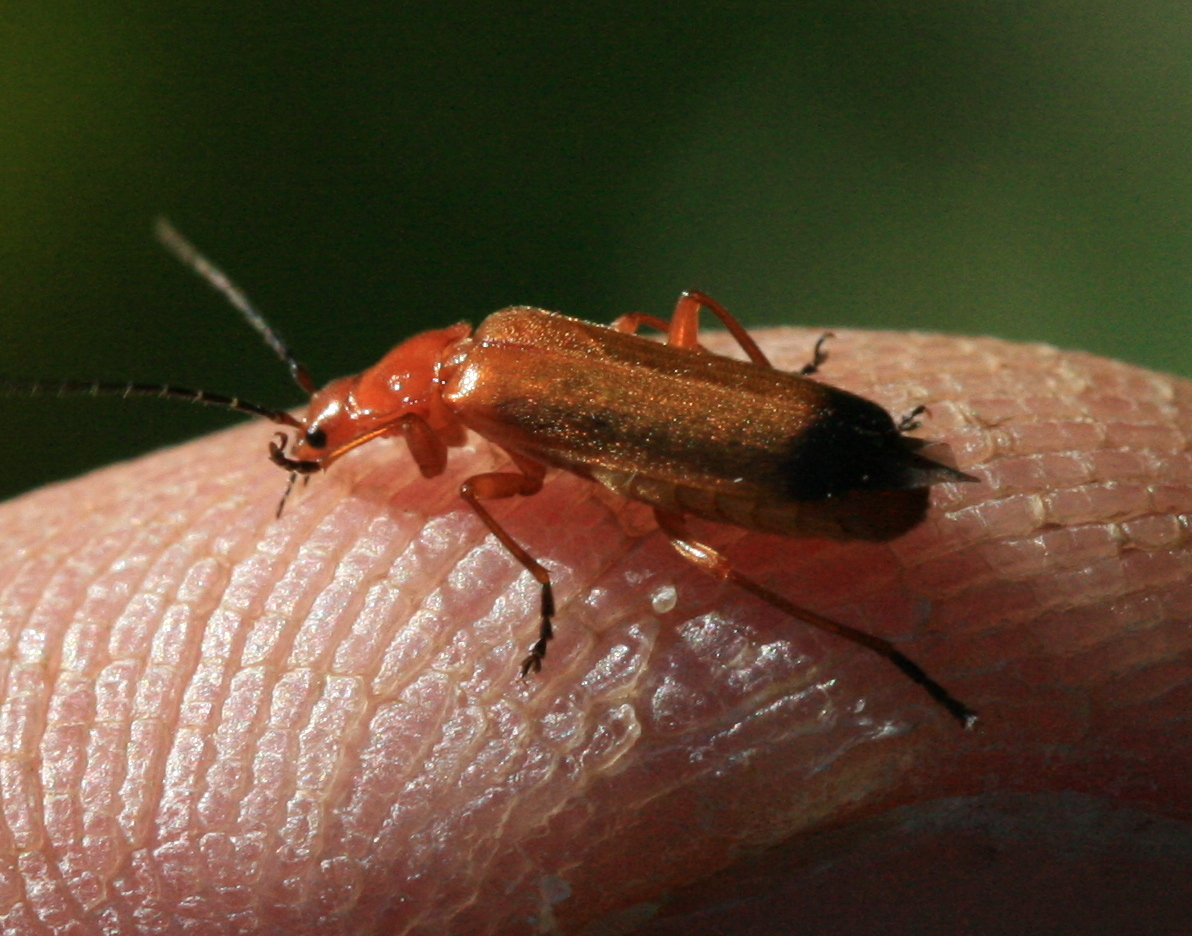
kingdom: Animalia
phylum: Arthropoda
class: Insecta
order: Coleoptera
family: Cantharidae
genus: Rhagonycha
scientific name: Rhagonycha fulva
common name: Common red soldier beetle
